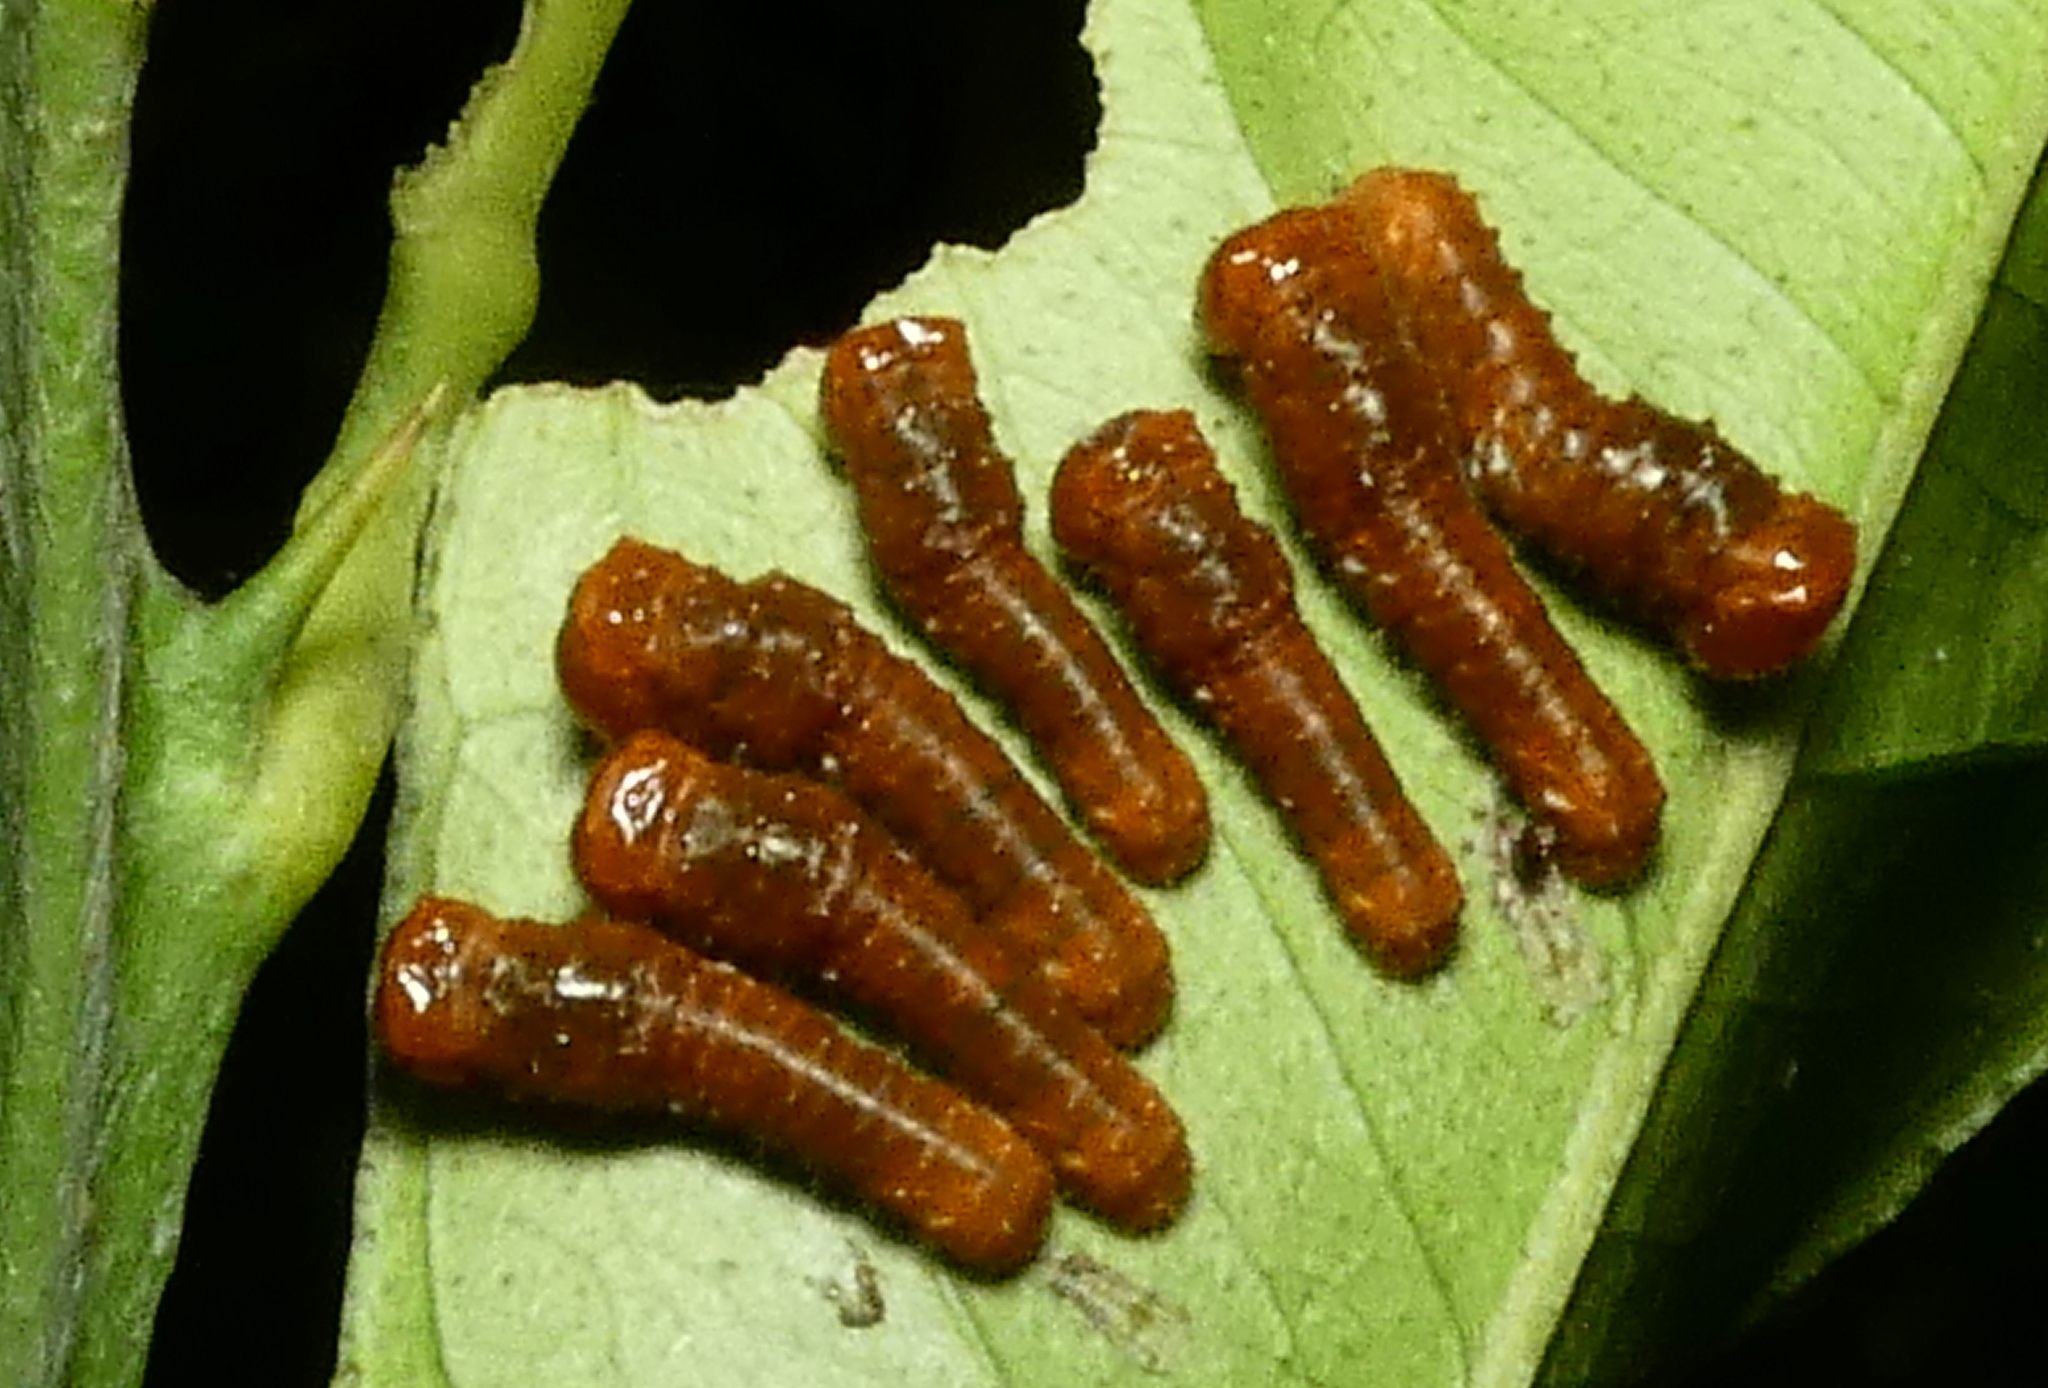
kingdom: Animalia
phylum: Arthropoda
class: Insecta
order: Lepidoptera
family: Papilionidae
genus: Papilio
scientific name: Papilio anchisiades
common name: Idaes swallowtail
